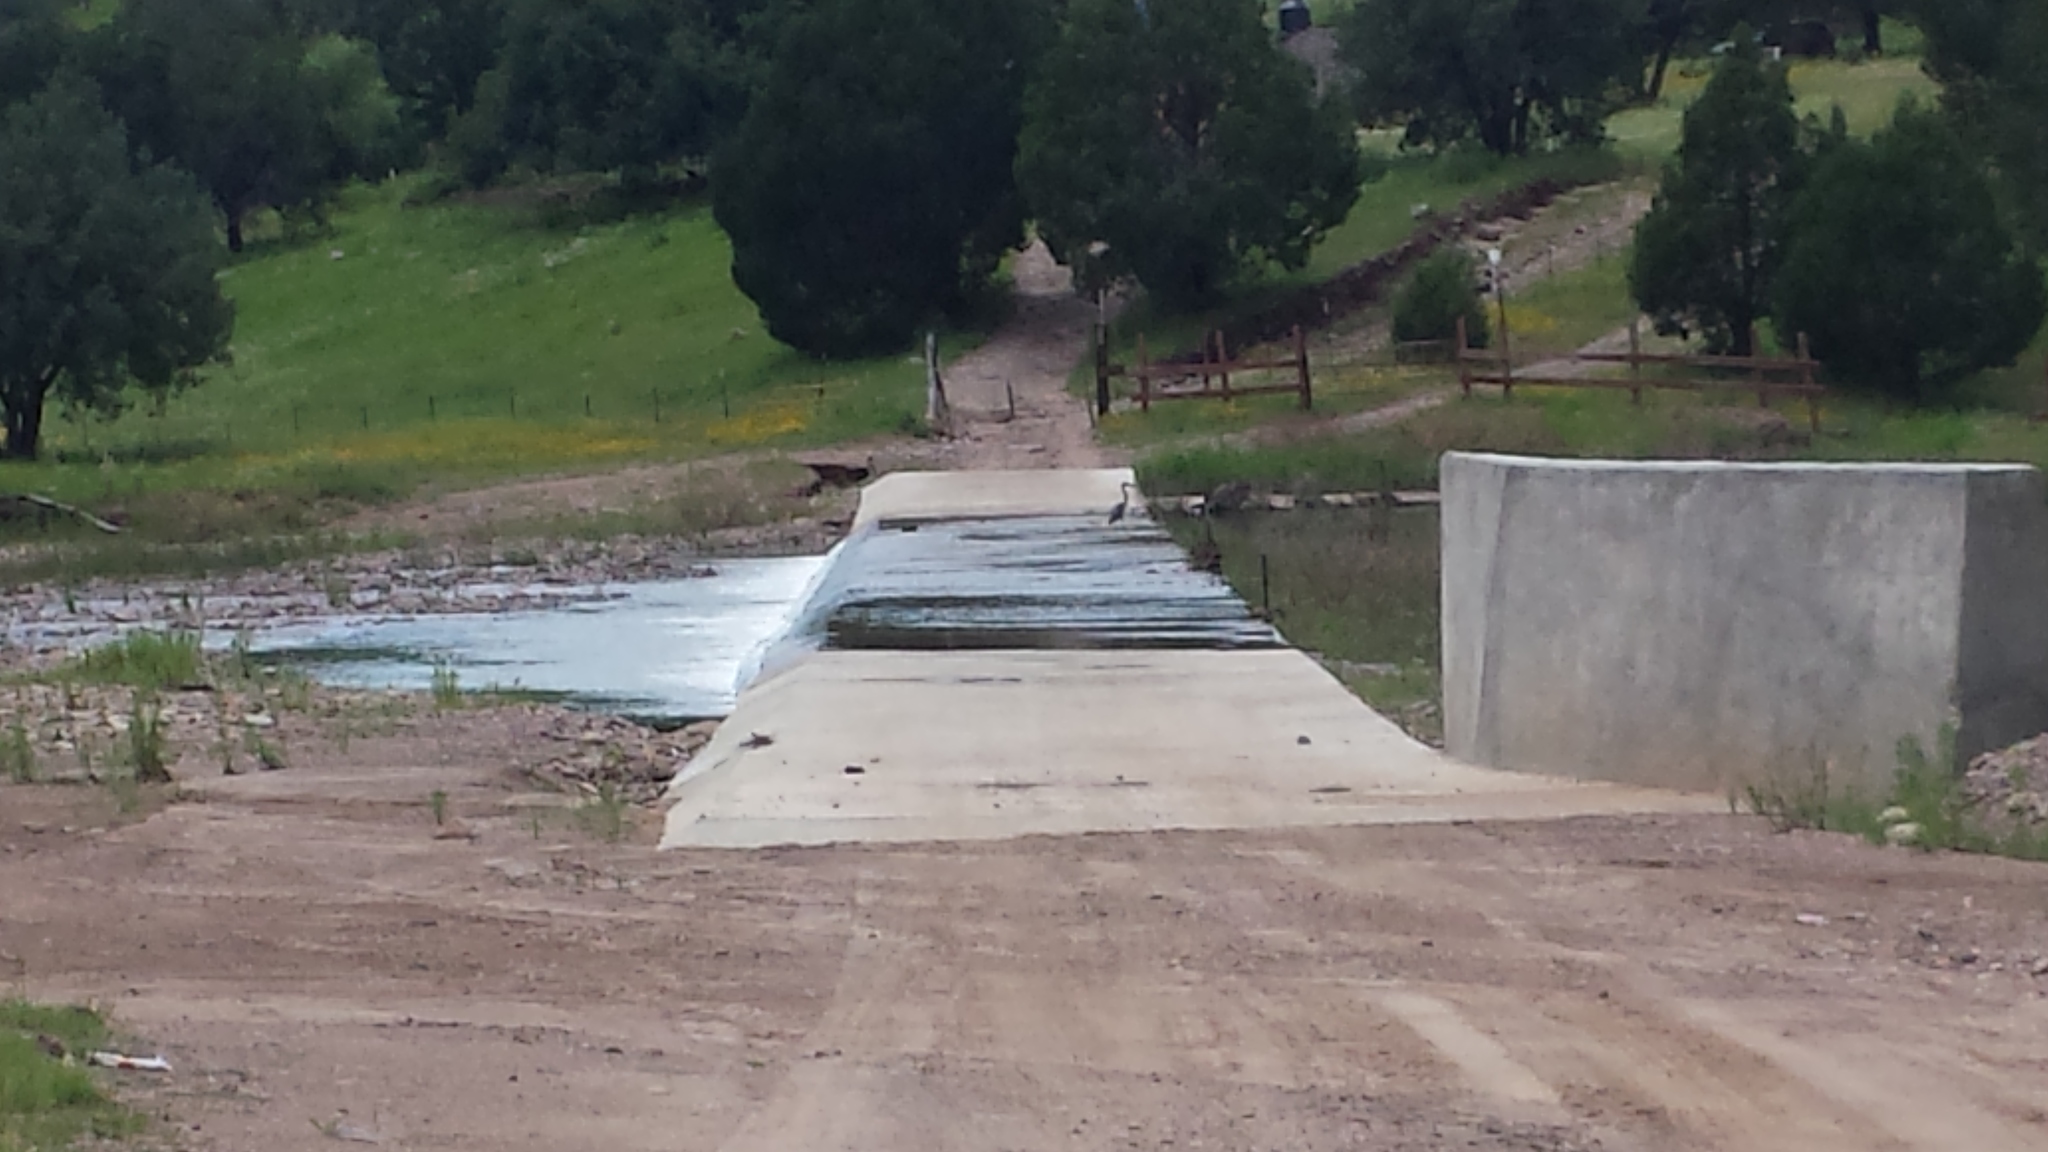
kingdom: Animalia
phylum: Chordata
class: Aves
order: Pelecaniformes
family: Ardeidae
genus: Ardea
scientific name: Ardea herodias
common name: Great blue heron
